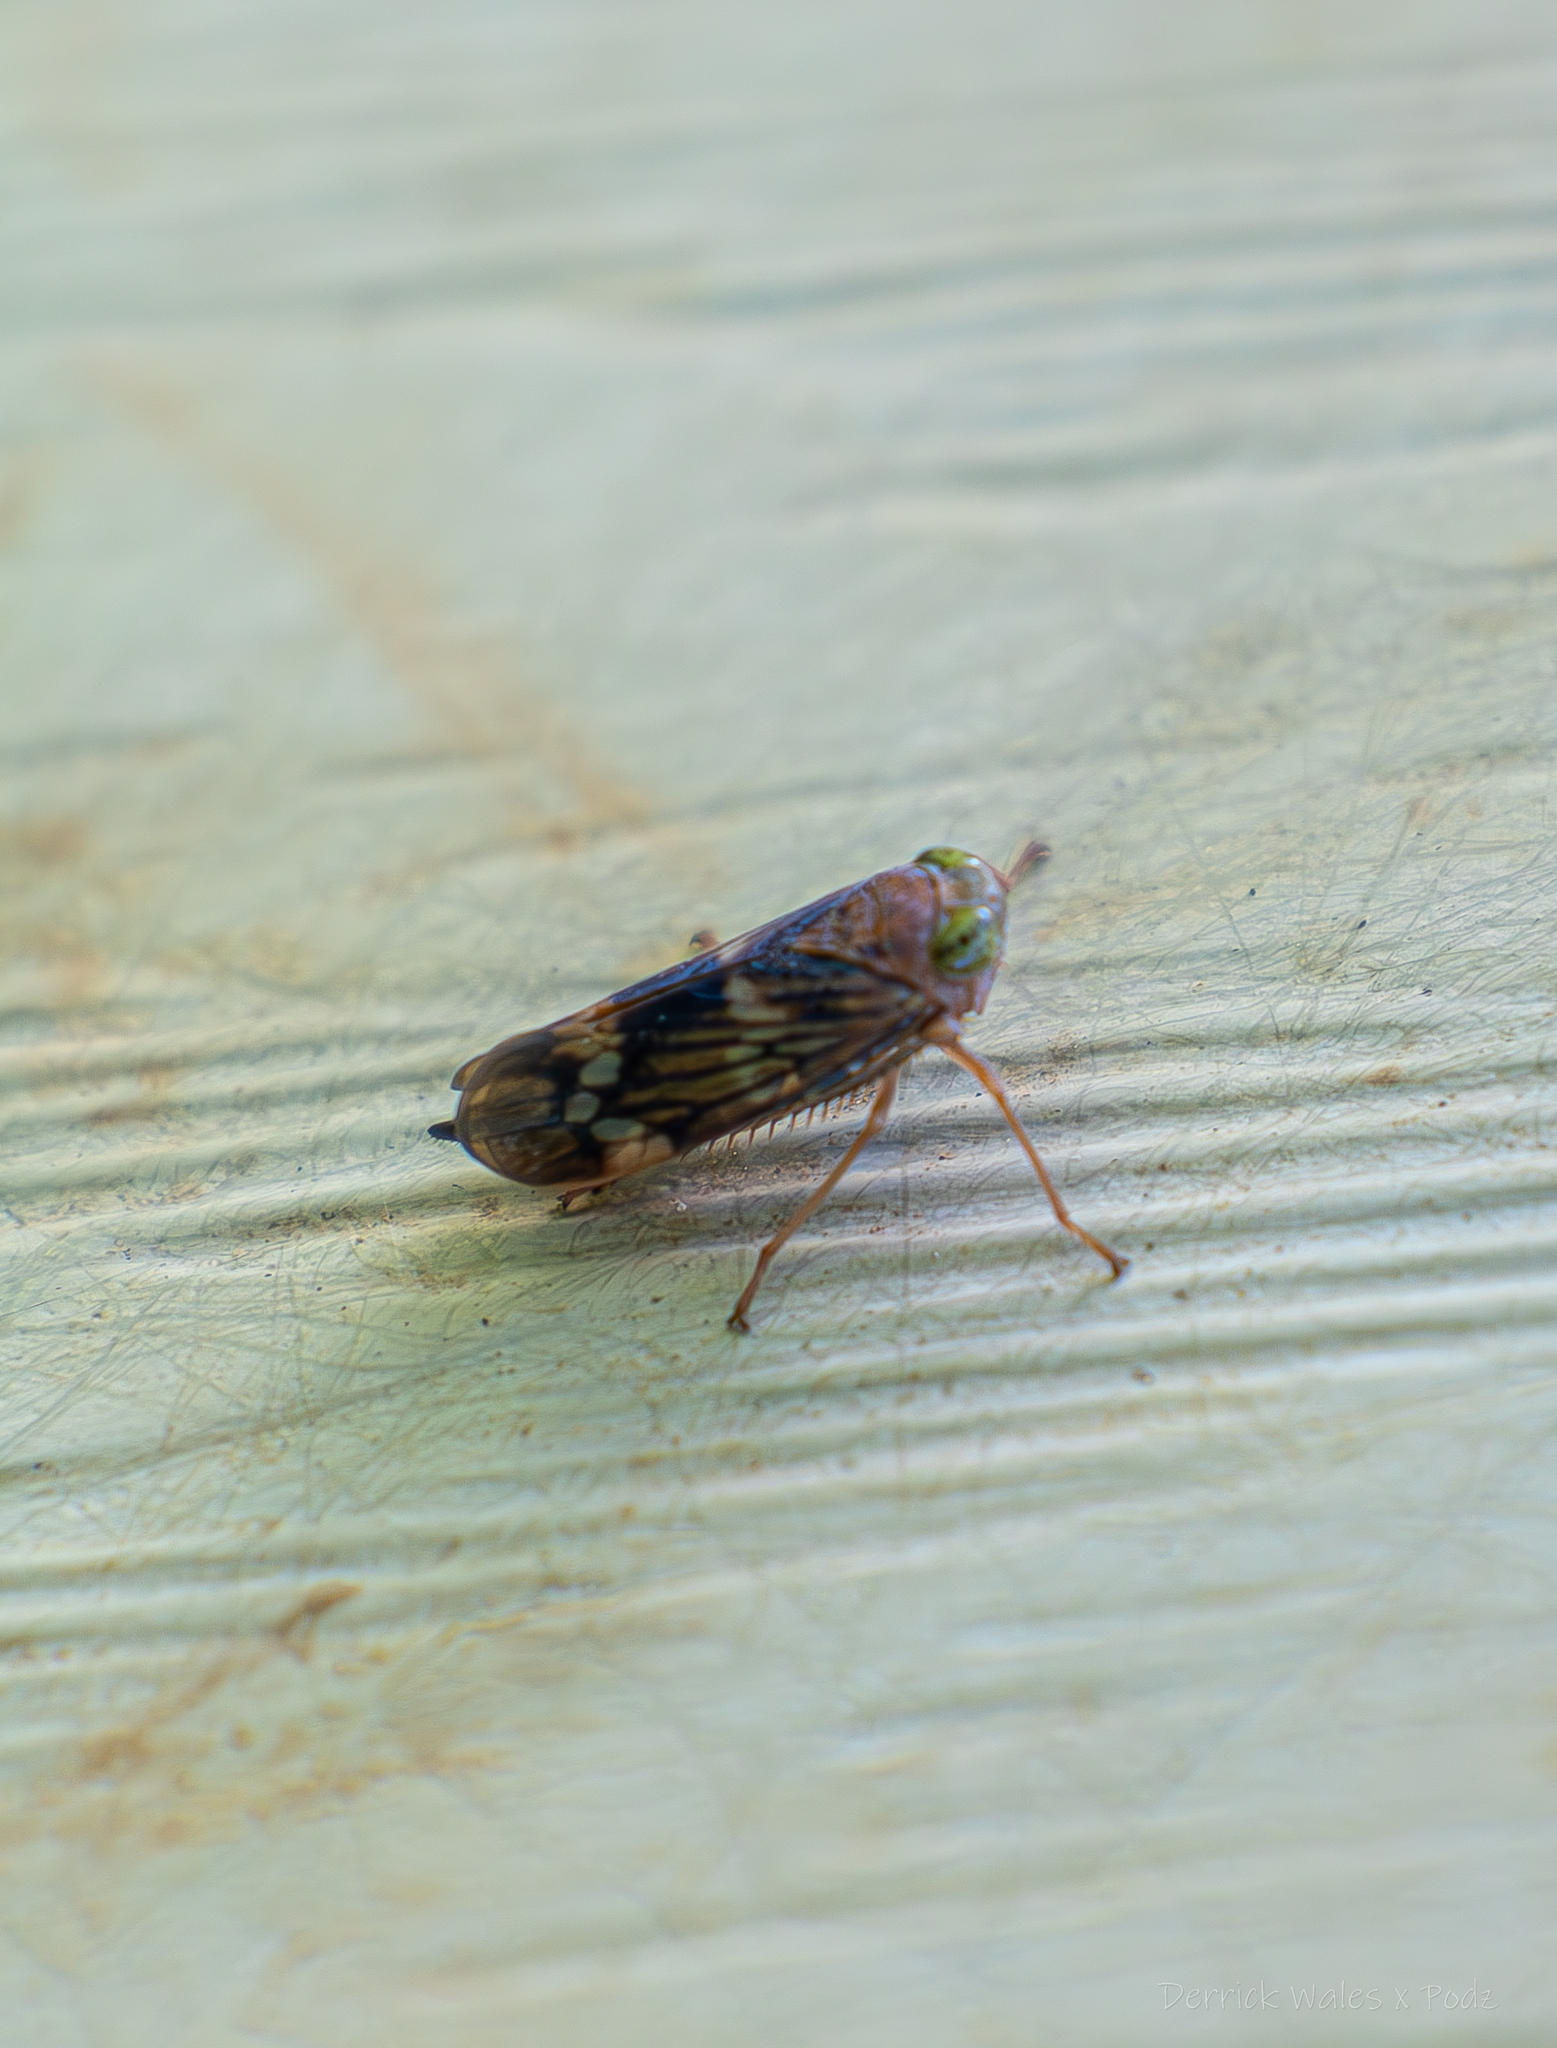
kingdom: Animalia
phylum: Arthropoda
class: Insecta
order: Hemiptera
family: Cicadellidae
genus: Jikradia
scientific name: Jikradia olitoria
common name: Coppery leafhopper
